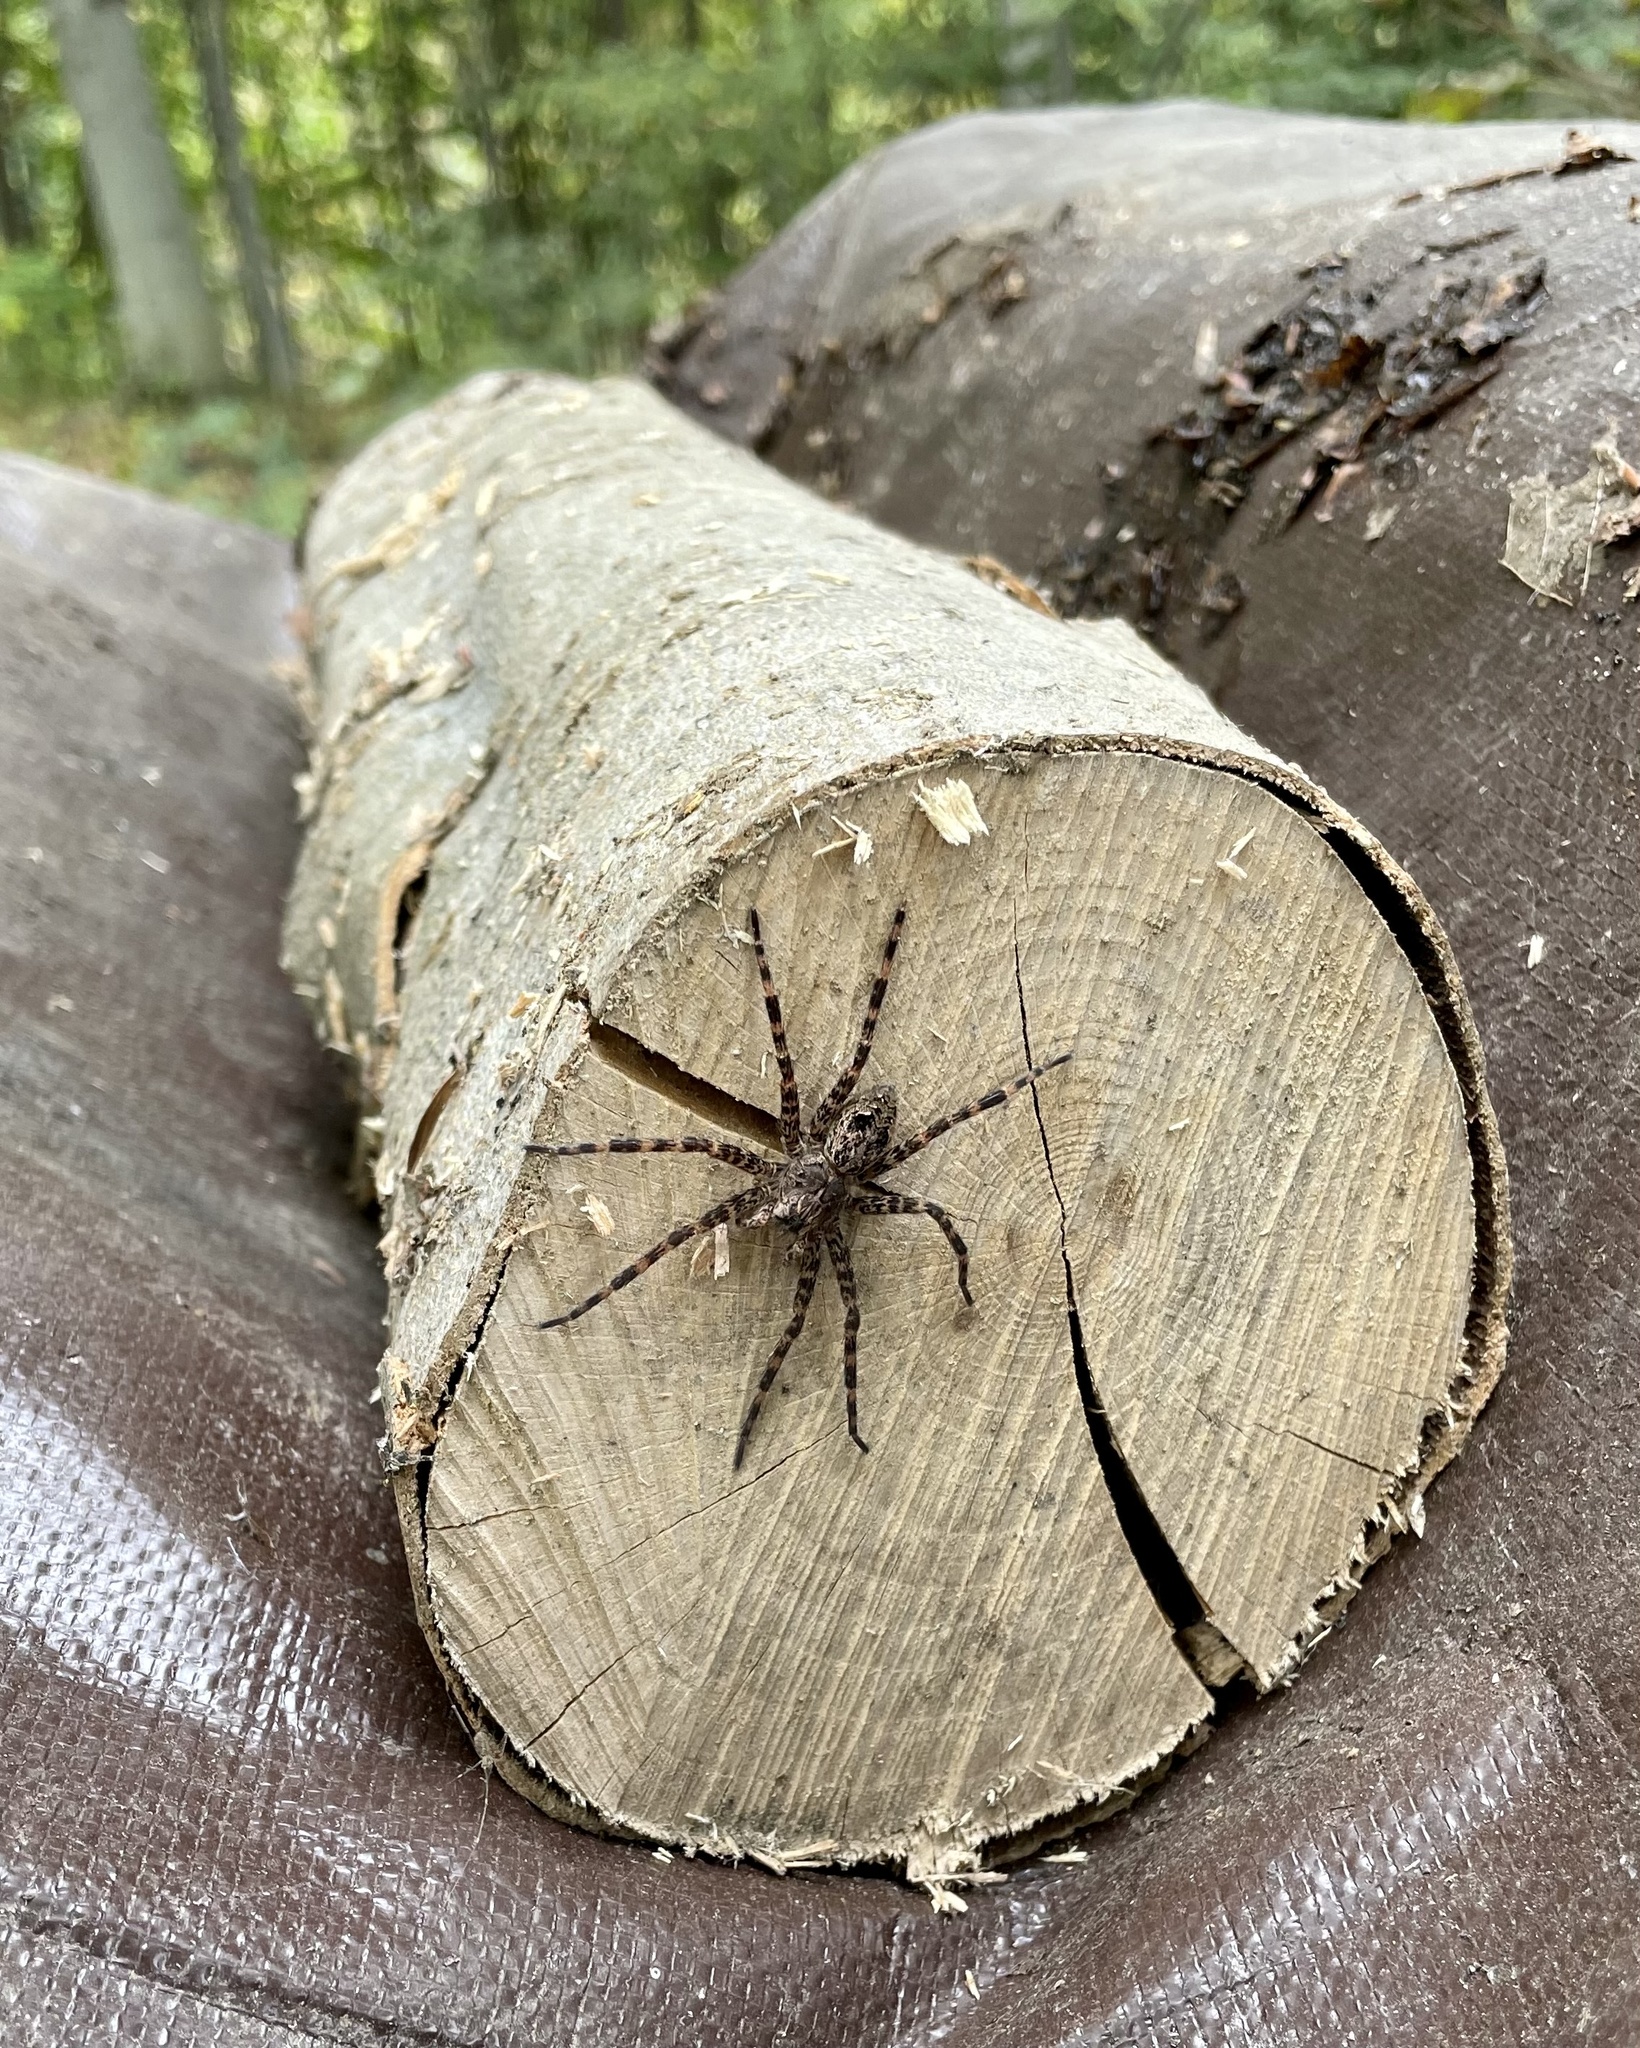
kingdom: Animalia
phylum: Arthropoda
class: Arachnida
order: Araneae
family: Pisauridae
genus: Dolomedes
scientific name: Dolomedes tenebrosus
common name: Dark fishing spider
